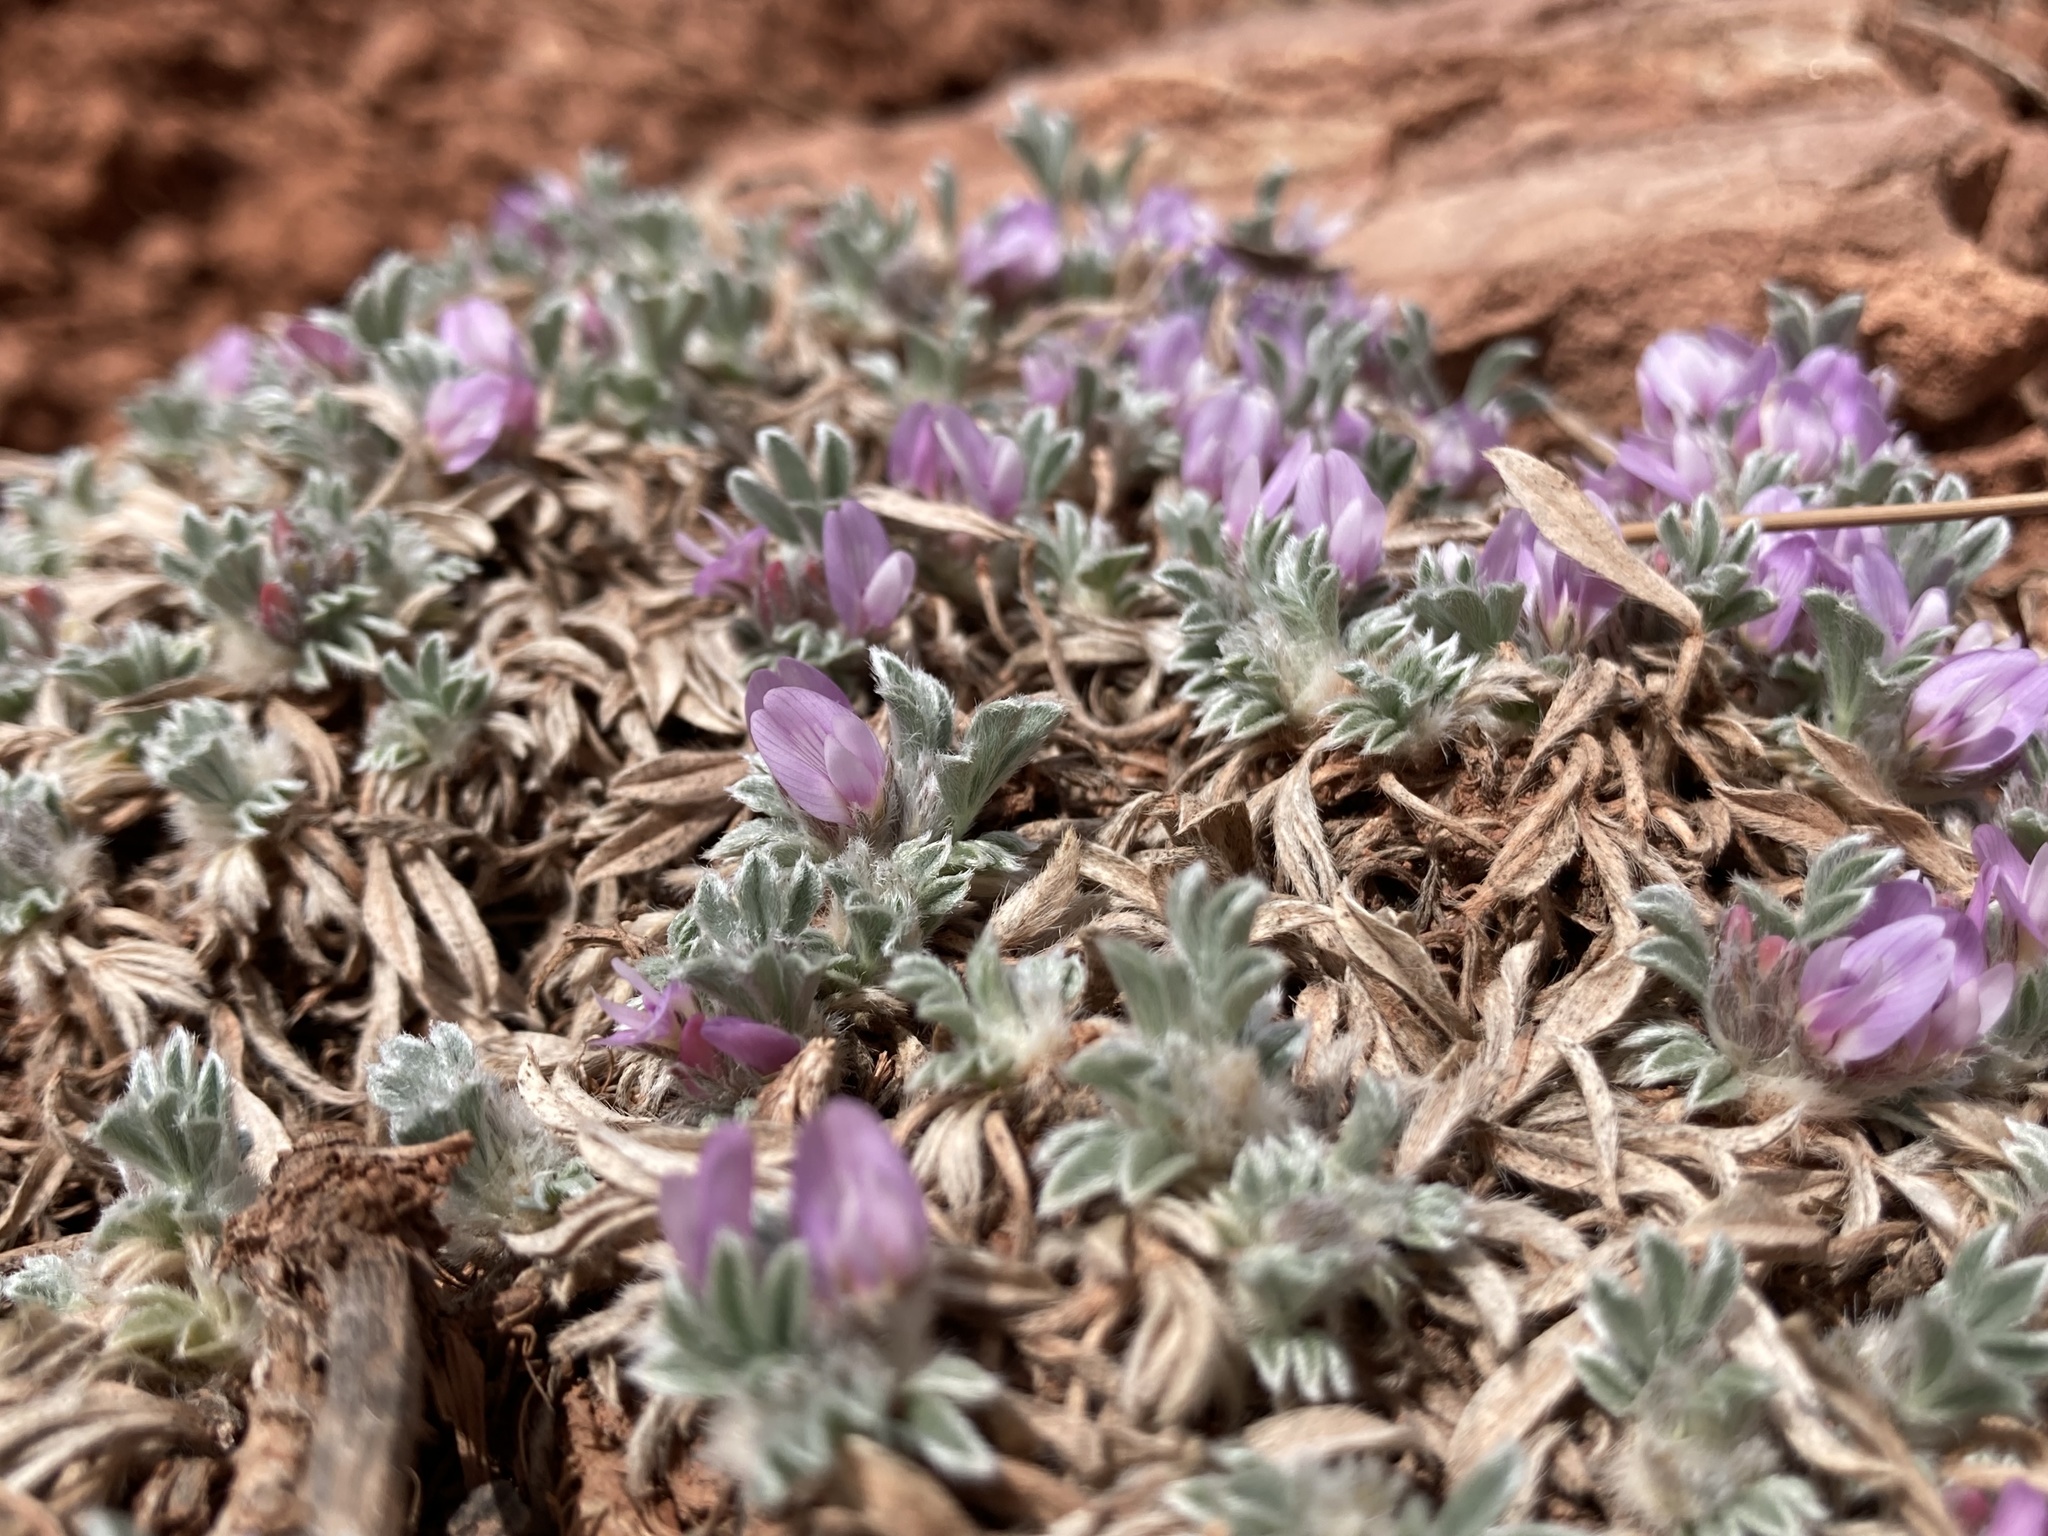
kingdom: Plantae
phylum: Tracheophyta
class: Magnoliopsida
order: Fabales
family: Fabaceae
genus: Astragalus
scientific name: Astragalus tridactylicus
